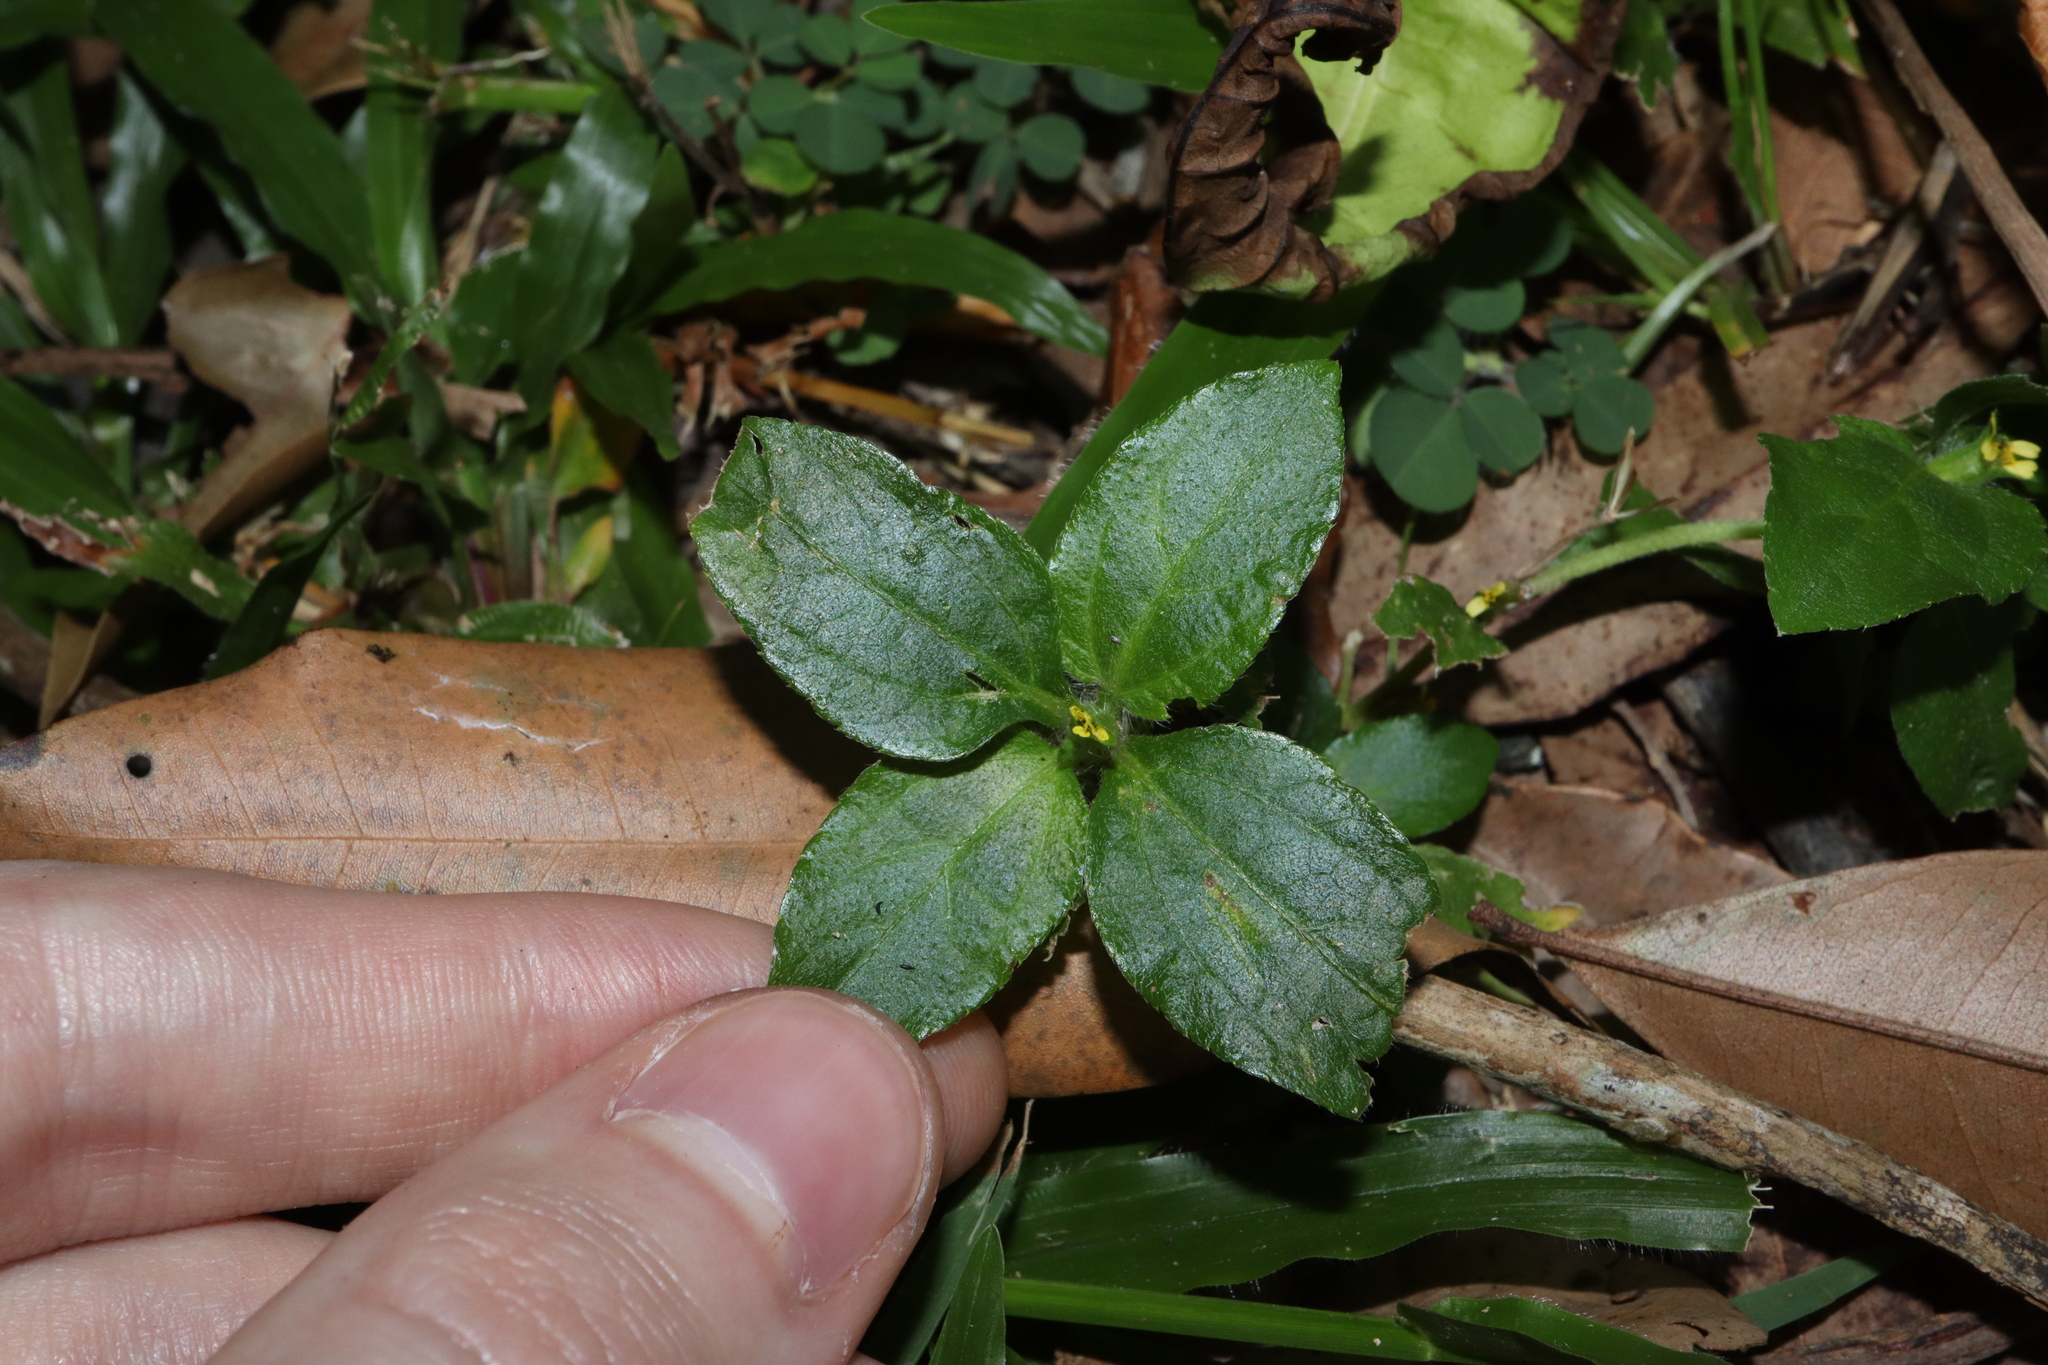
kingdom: Plantae
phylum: Tracheophyta
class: Magnoliopsida
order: Asterales
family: Asteraceae
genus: Synedrella
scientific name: Synedrella nodiflora
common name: Nodeweed
